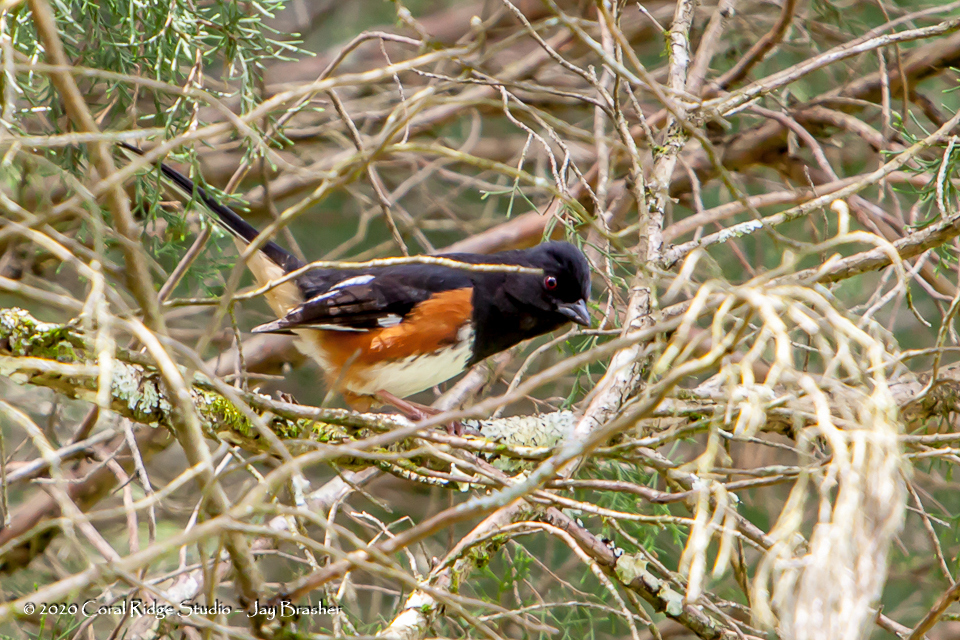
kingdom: Animalia
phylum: Chordata
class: Aves
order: Passeriformes
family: Passerellidae
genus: Pipilo
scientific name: Pipilo erythrophthalmus
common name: Eastern towhee
